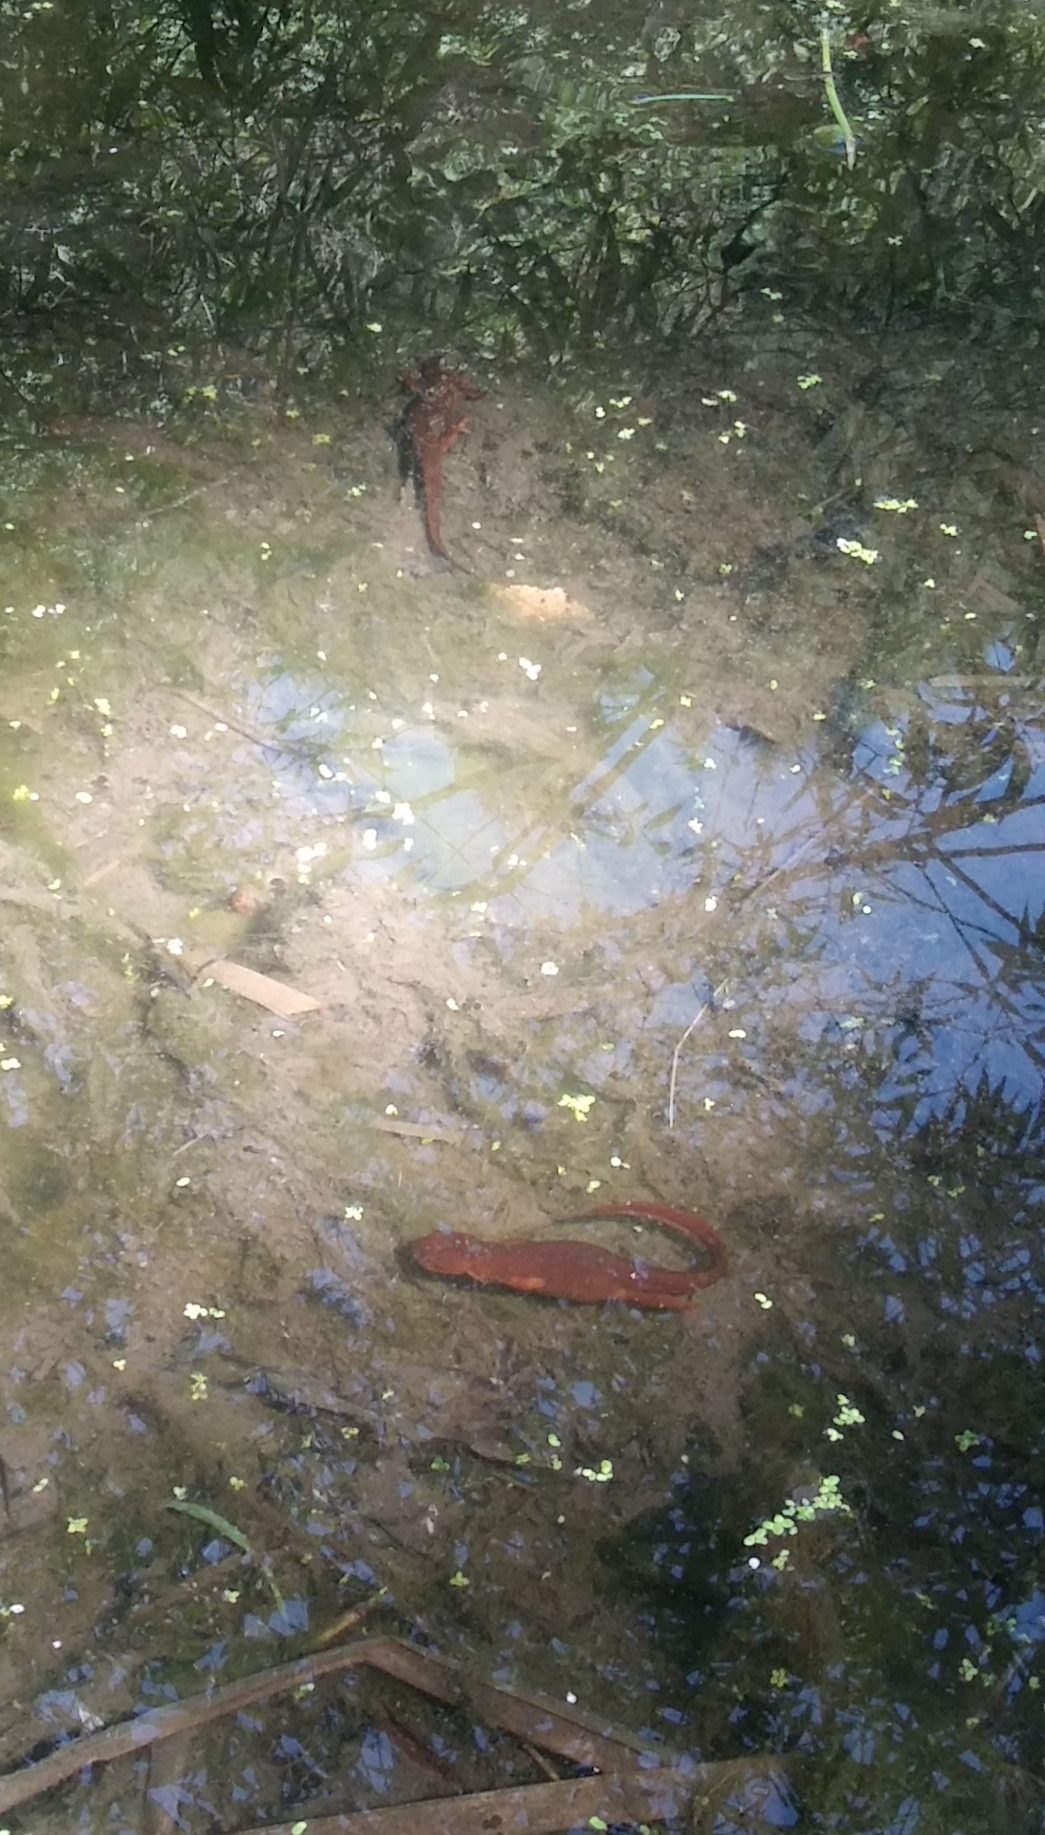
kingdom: Animalia
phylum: Chordata
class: Amphibia
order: Caudata
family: Salamandridae
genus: Taricha
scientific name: Taricha granulosa
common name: Roughskin newt
